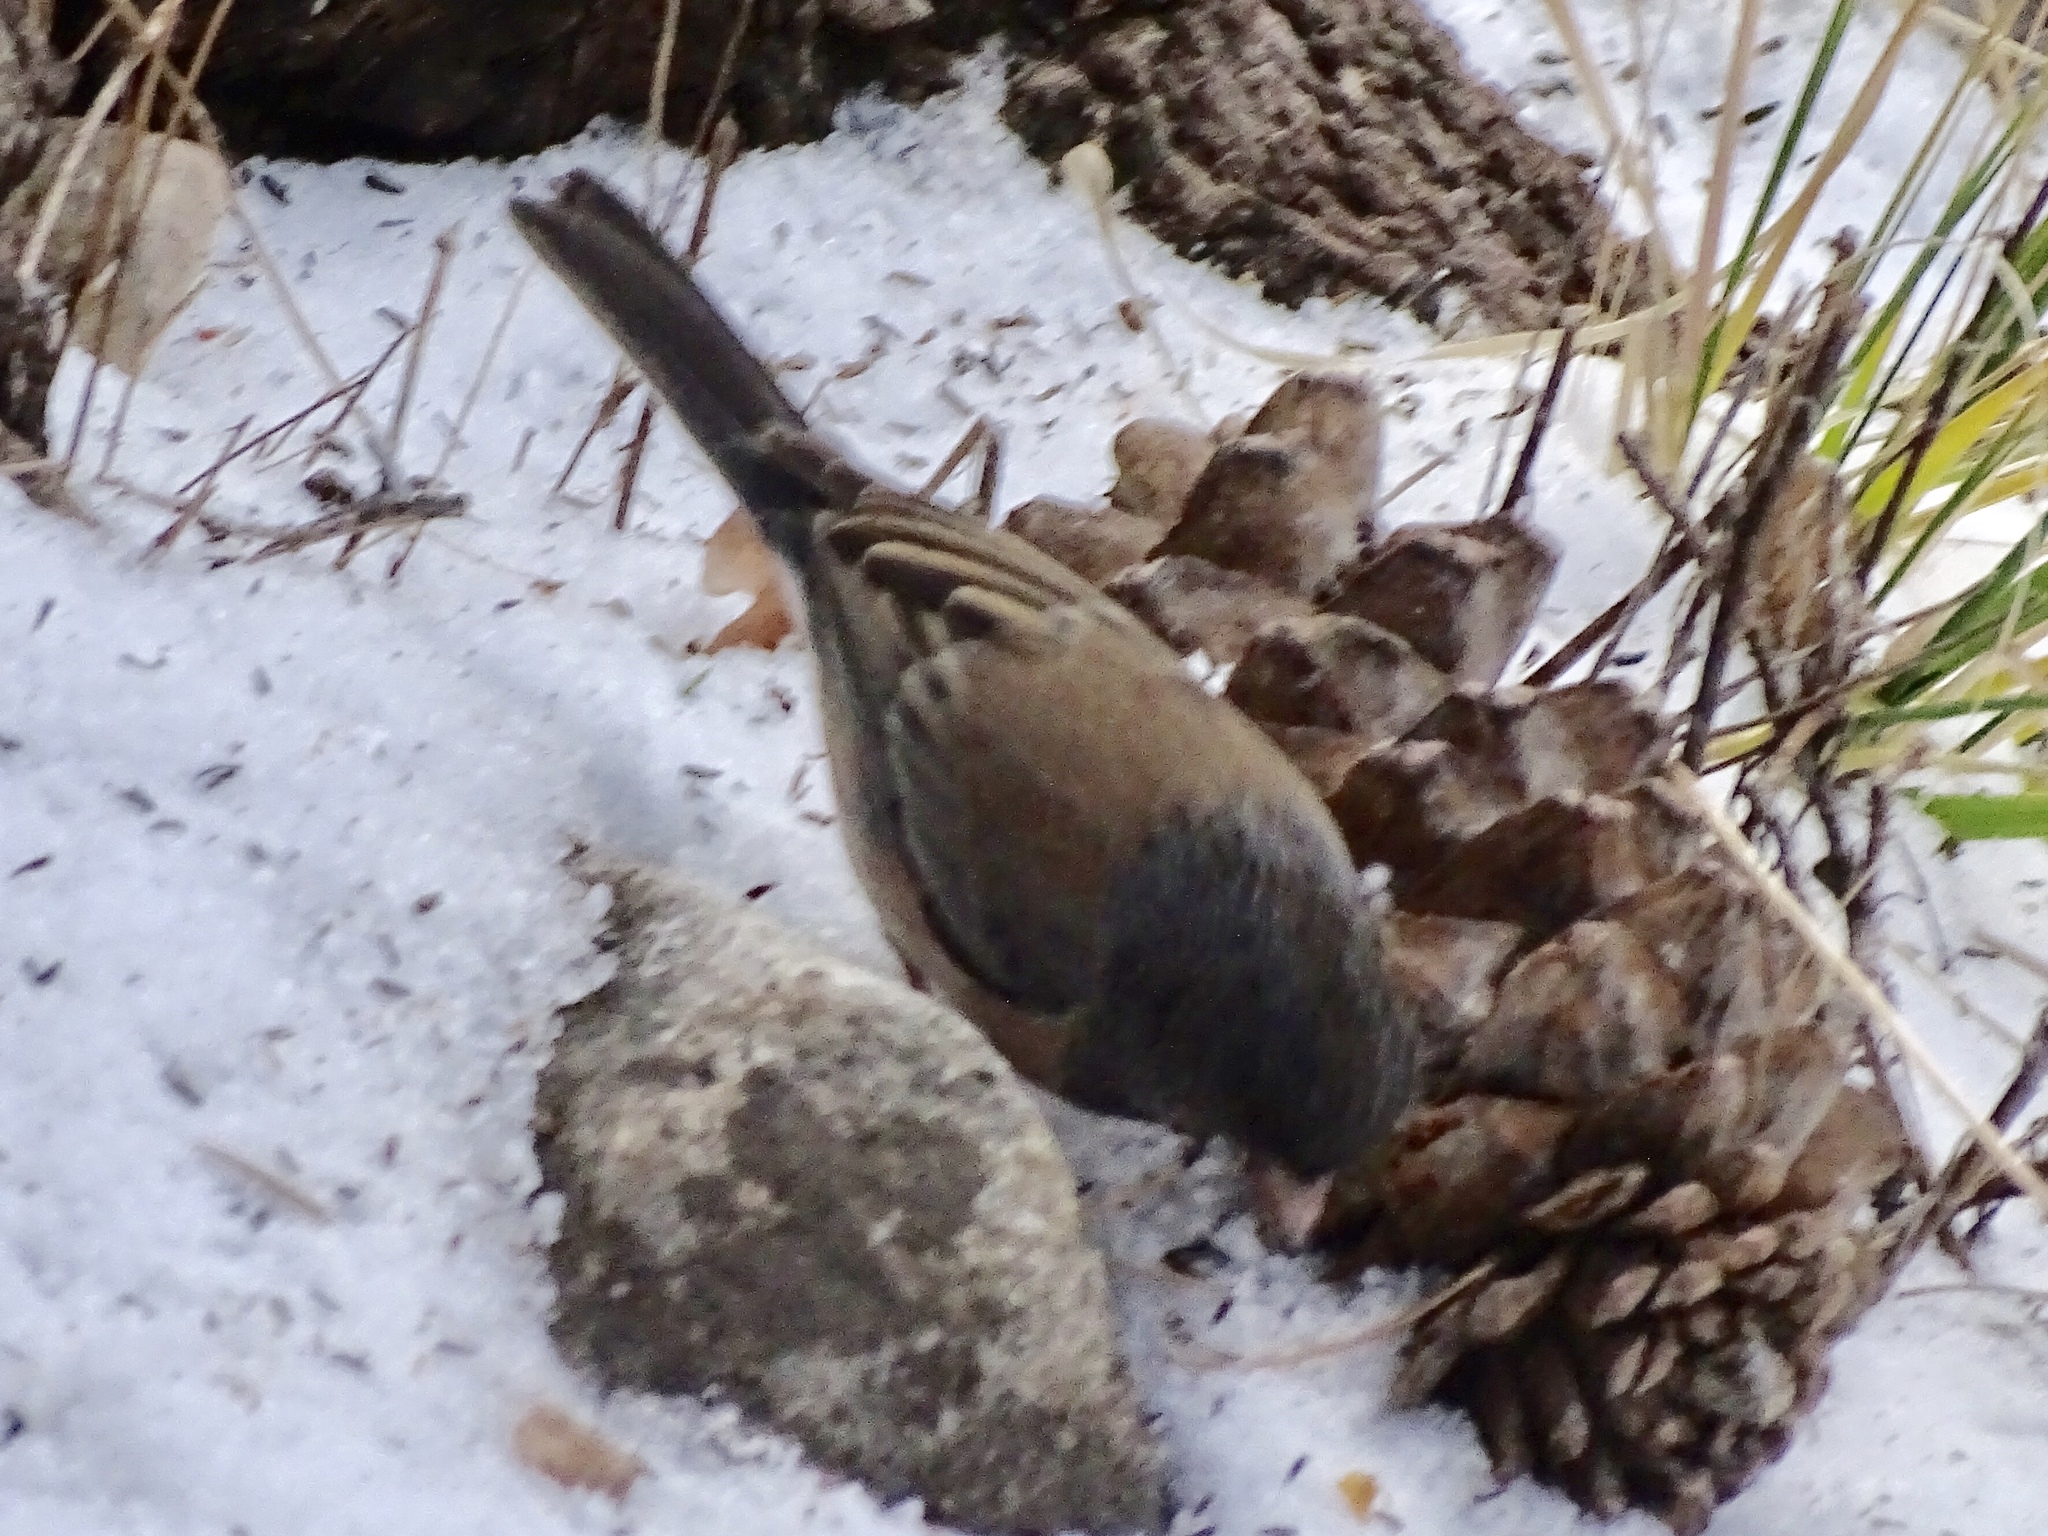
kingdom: Animalia
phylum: Chordata
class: Aves
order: Passeriformes
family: Passerellidae
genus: Junco
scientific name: Junco hyemalis
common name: Dark-eyed junco
